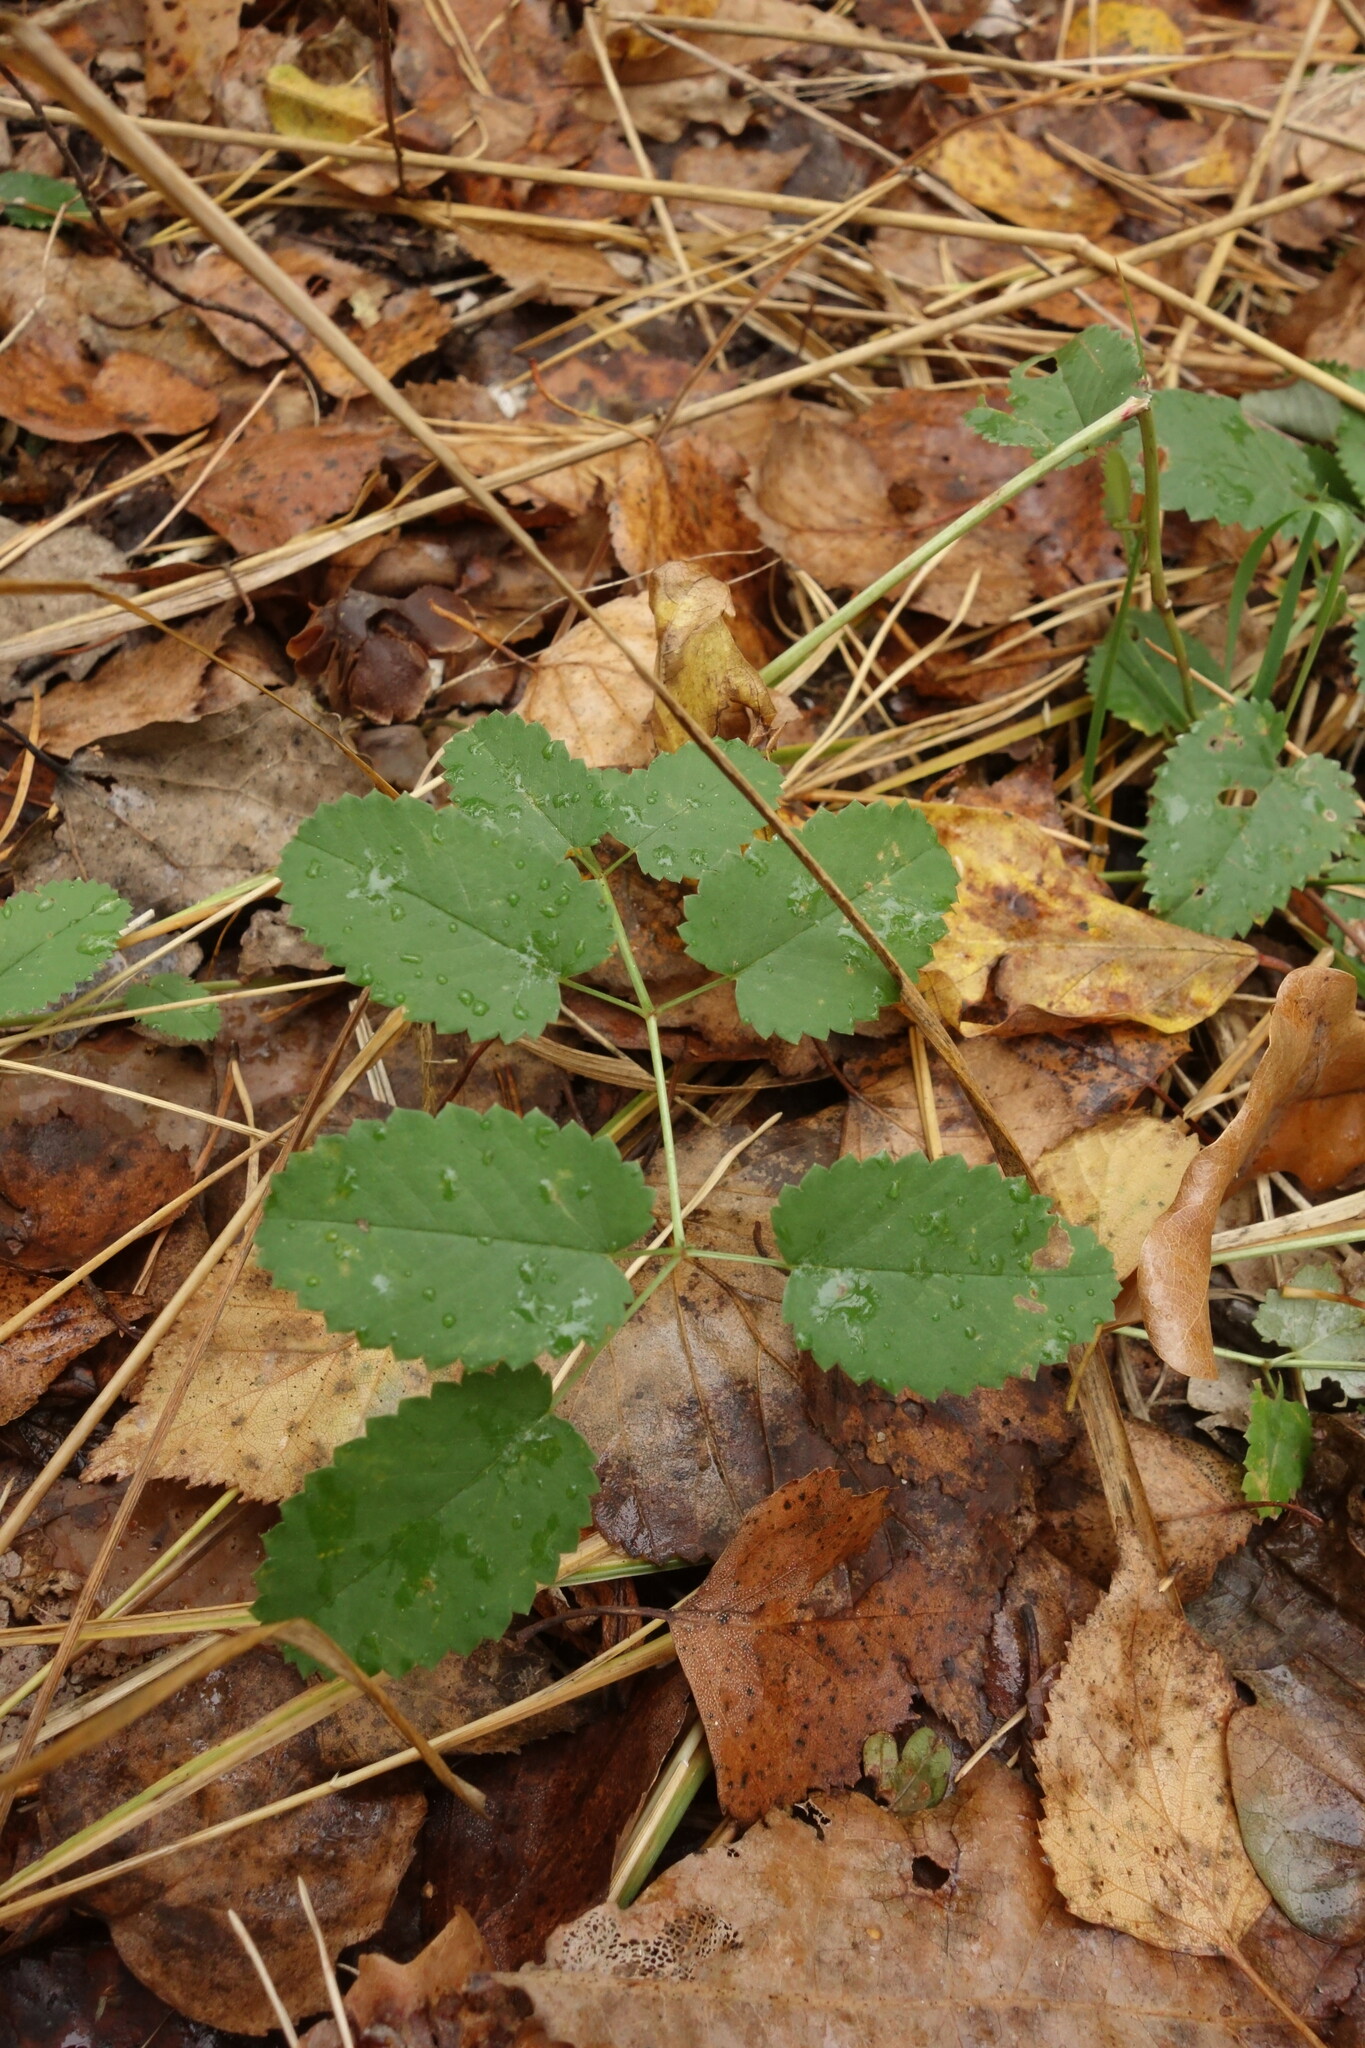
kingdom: Plantae
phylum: Tracheophyta
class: Magnoliopsida
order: Rosales
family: Rosaceae
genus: Sanguisorba
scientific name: Sanguisorba officinalis
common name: Great burnet
